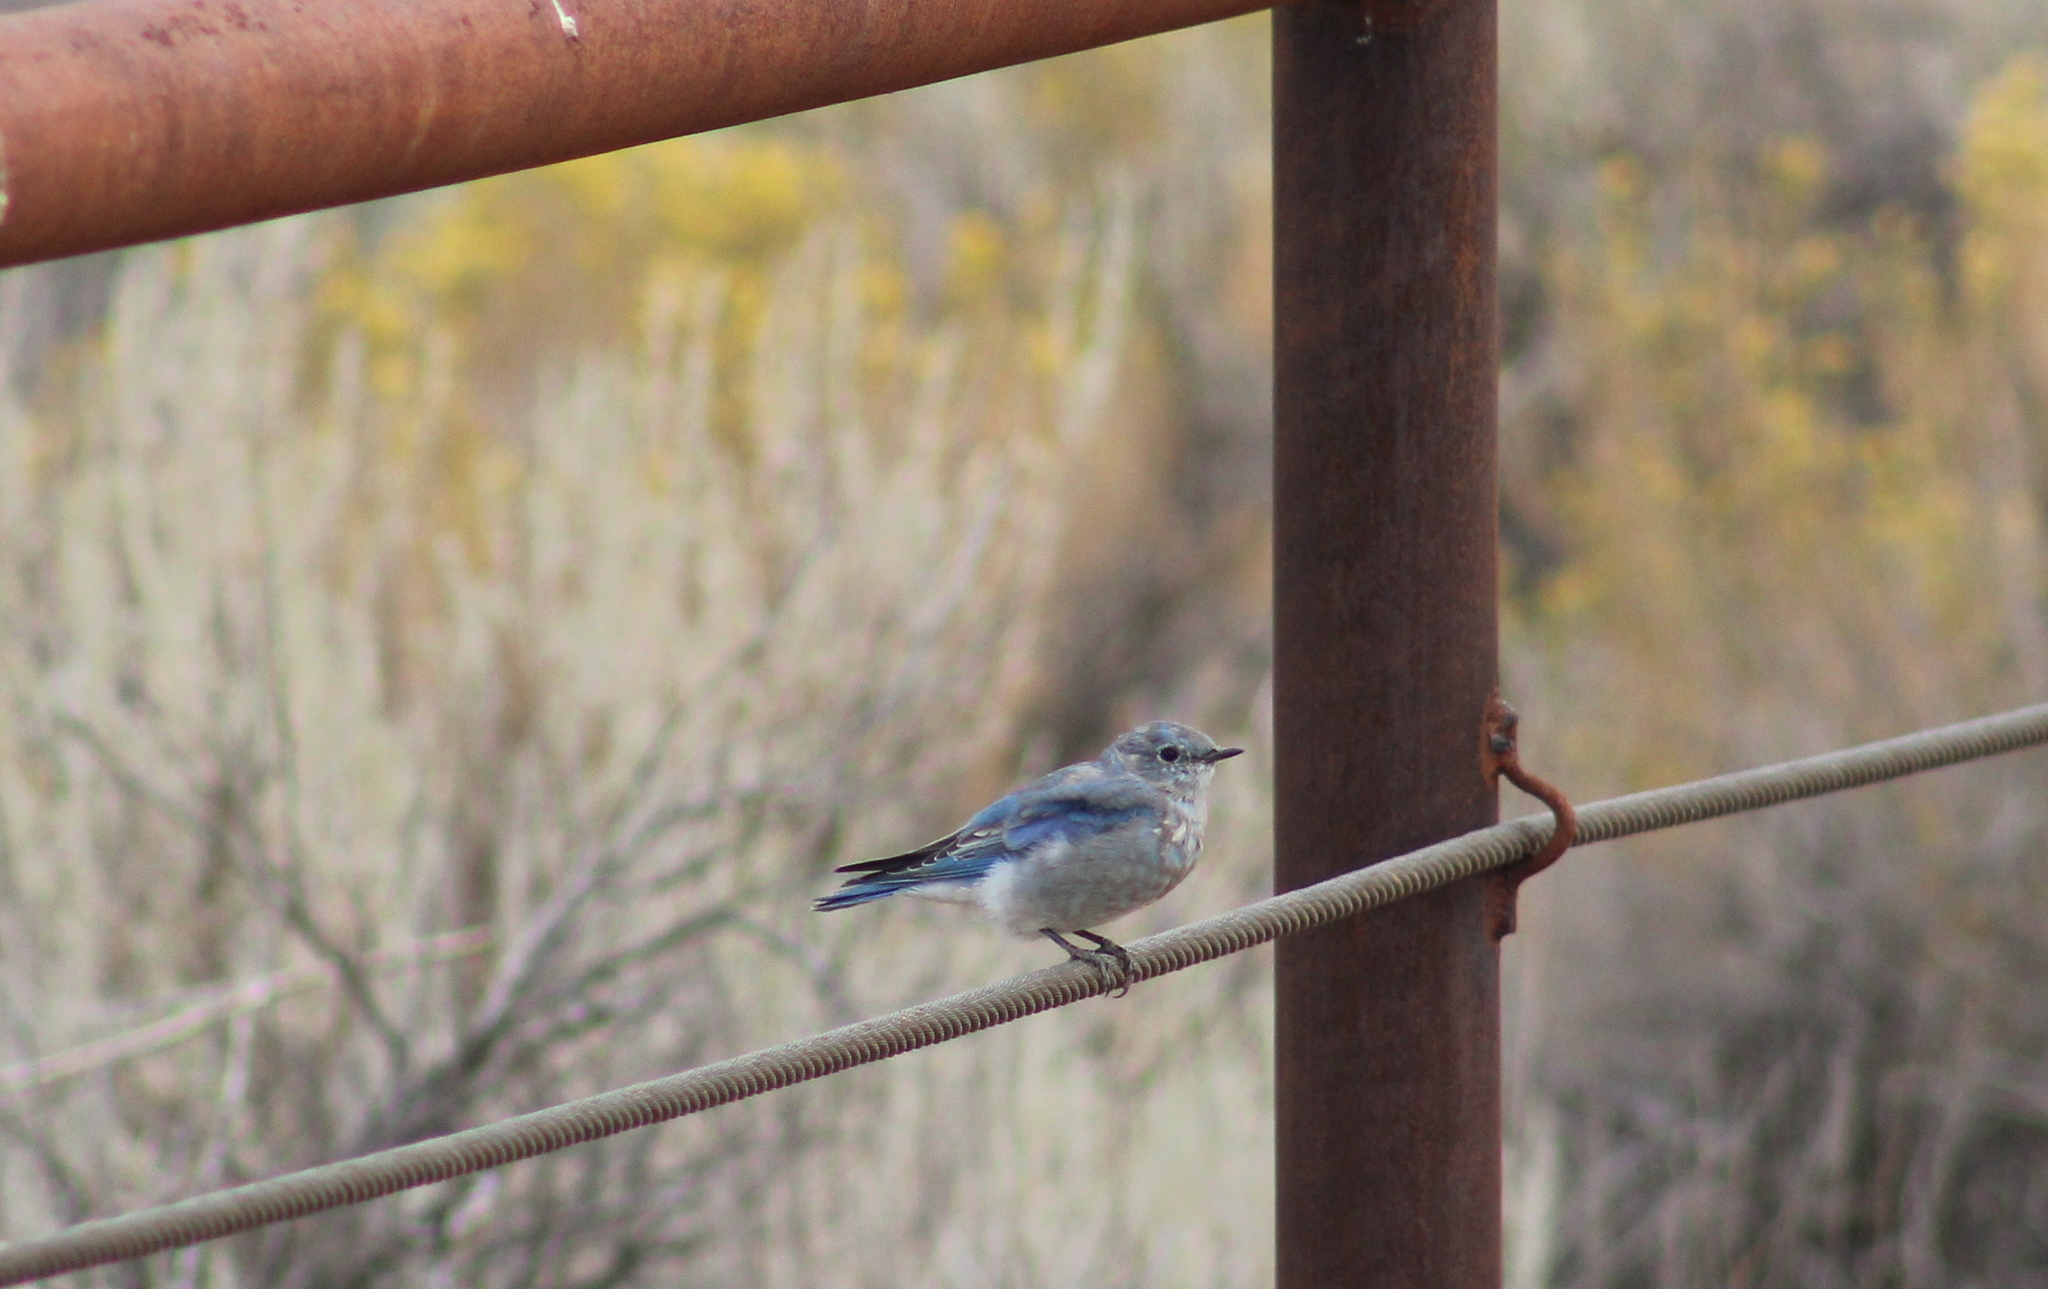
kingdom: Animalia
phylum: Chordata
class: Aves
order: Passeriformes
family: Turdidae
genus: Sialia
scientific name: Sialia currucoides
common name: Mountain bluebird
